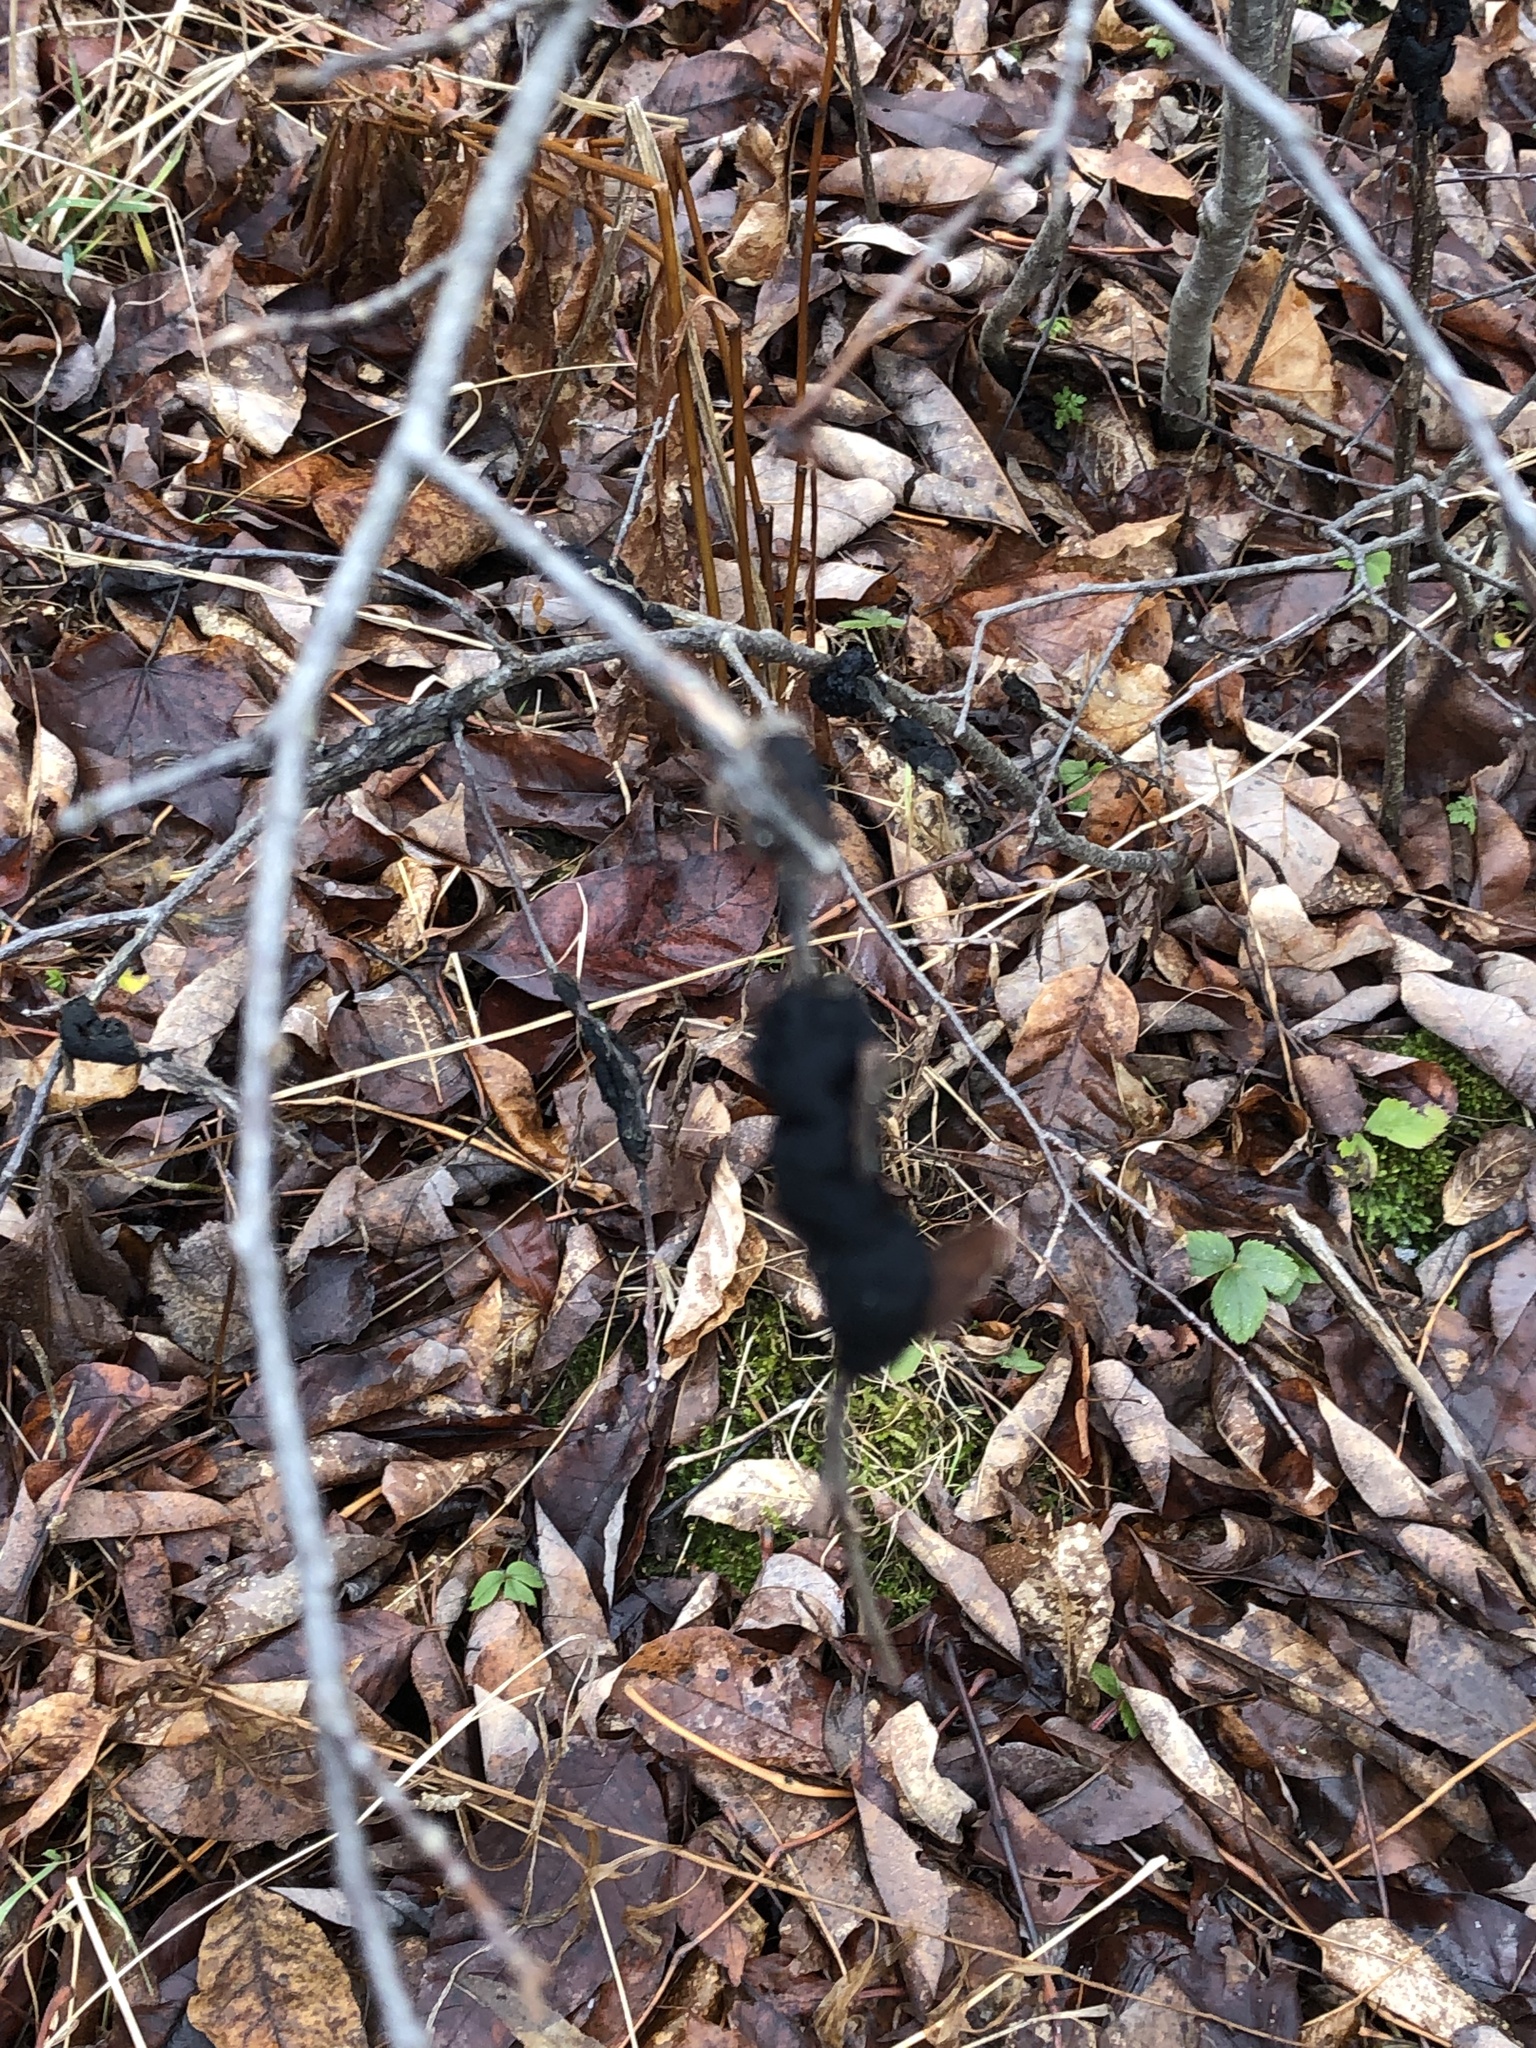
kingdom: Fungi
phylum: Ascomycota
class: Dothideomycetes
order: Venturiales
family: Venturiaceae
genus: Apiosporina
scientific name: Apiosporina morbosa
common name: Black knot
